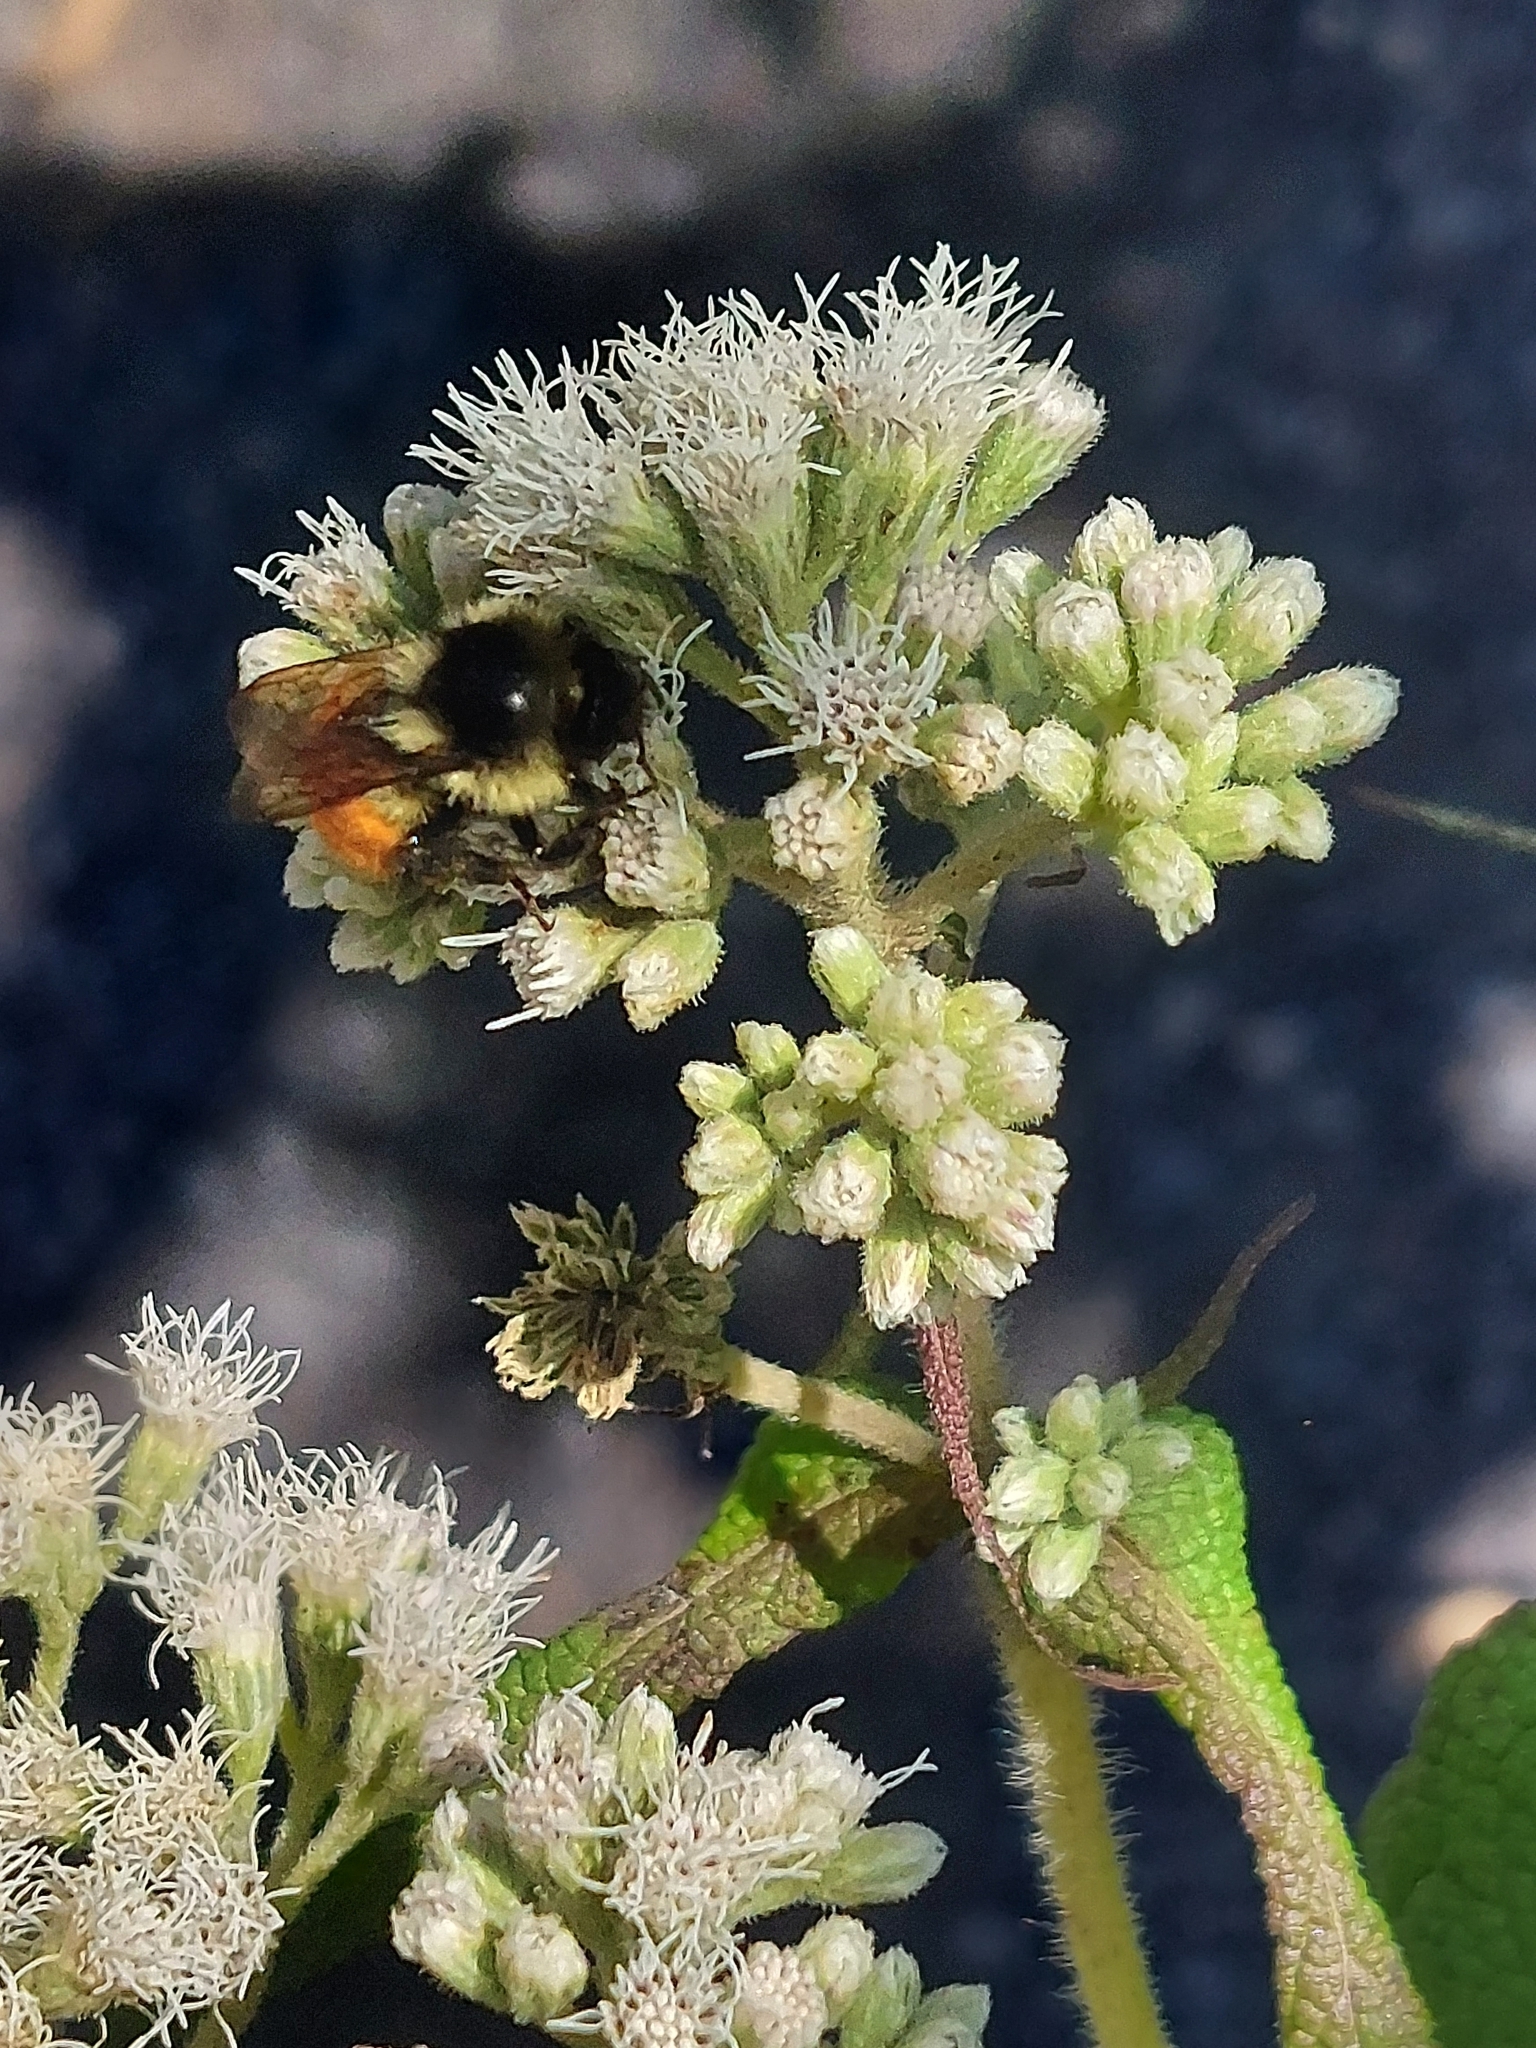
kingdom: Animalia
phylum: Arthropoda
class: Insecta
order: Hymenoptera
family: Apidae
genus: Bombus
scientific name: Bombus ternarius
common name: Tri-colored bumble bee
